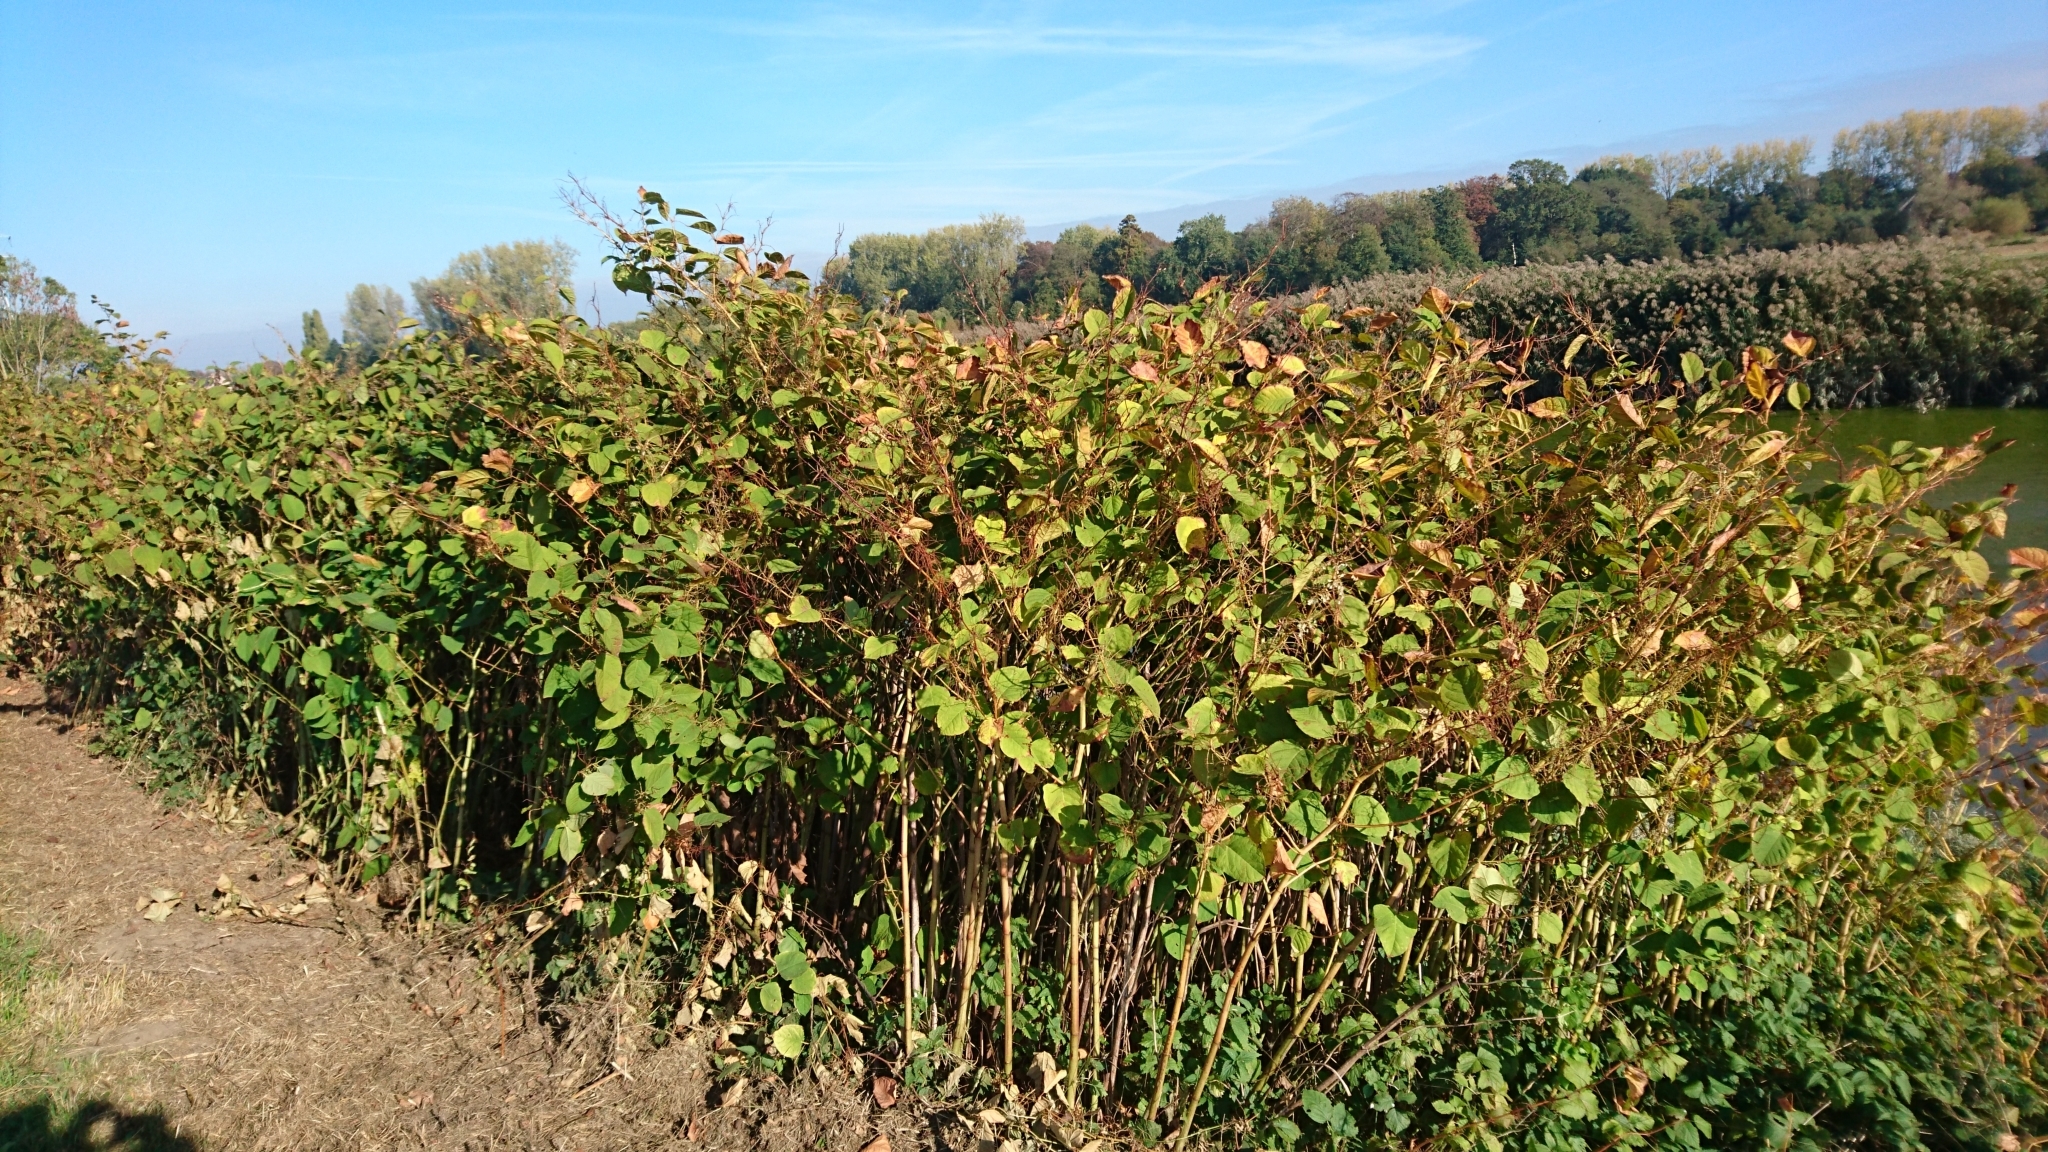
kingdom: Plantae
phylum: Tracheophyta
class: Magnoliopsida
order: Caryophyllales
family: Polygonaceae
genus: Reynoutria
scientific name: Reynoutria japonica
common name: Japanese knotweed
